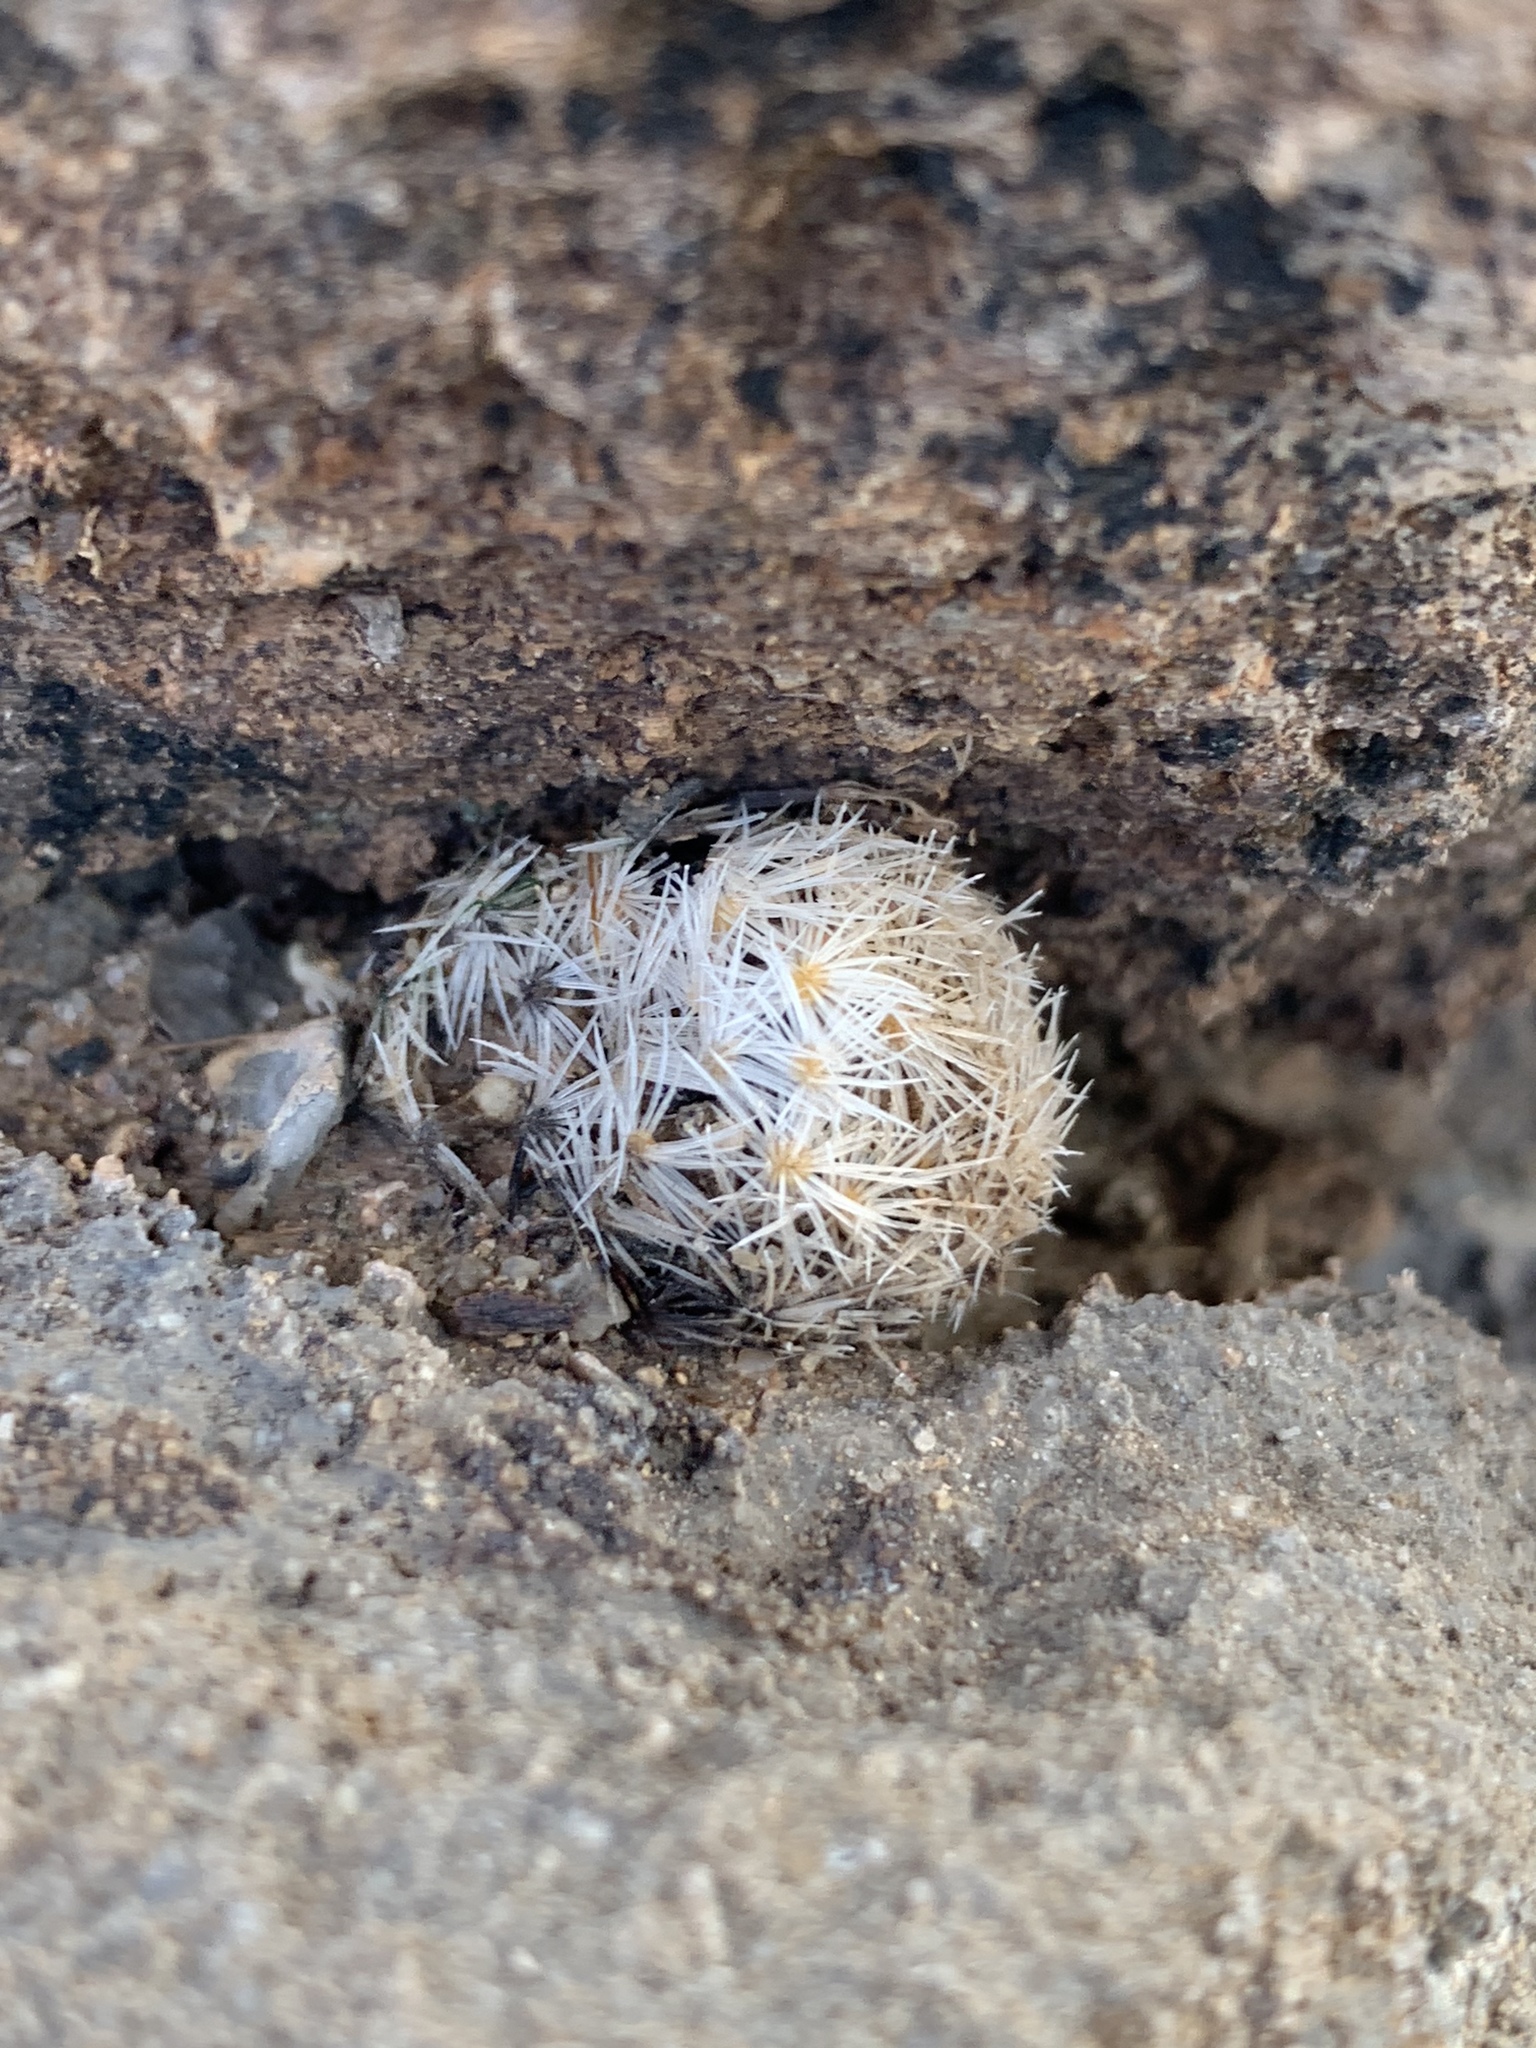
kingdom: Plantae
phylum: Tracheophyta
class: Magnoliopsida
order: Caryophyllales
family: Cactaceae
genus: Mammillaria
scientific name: Mammillaria lasiacantha
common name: Lace-spine nipple cactus
